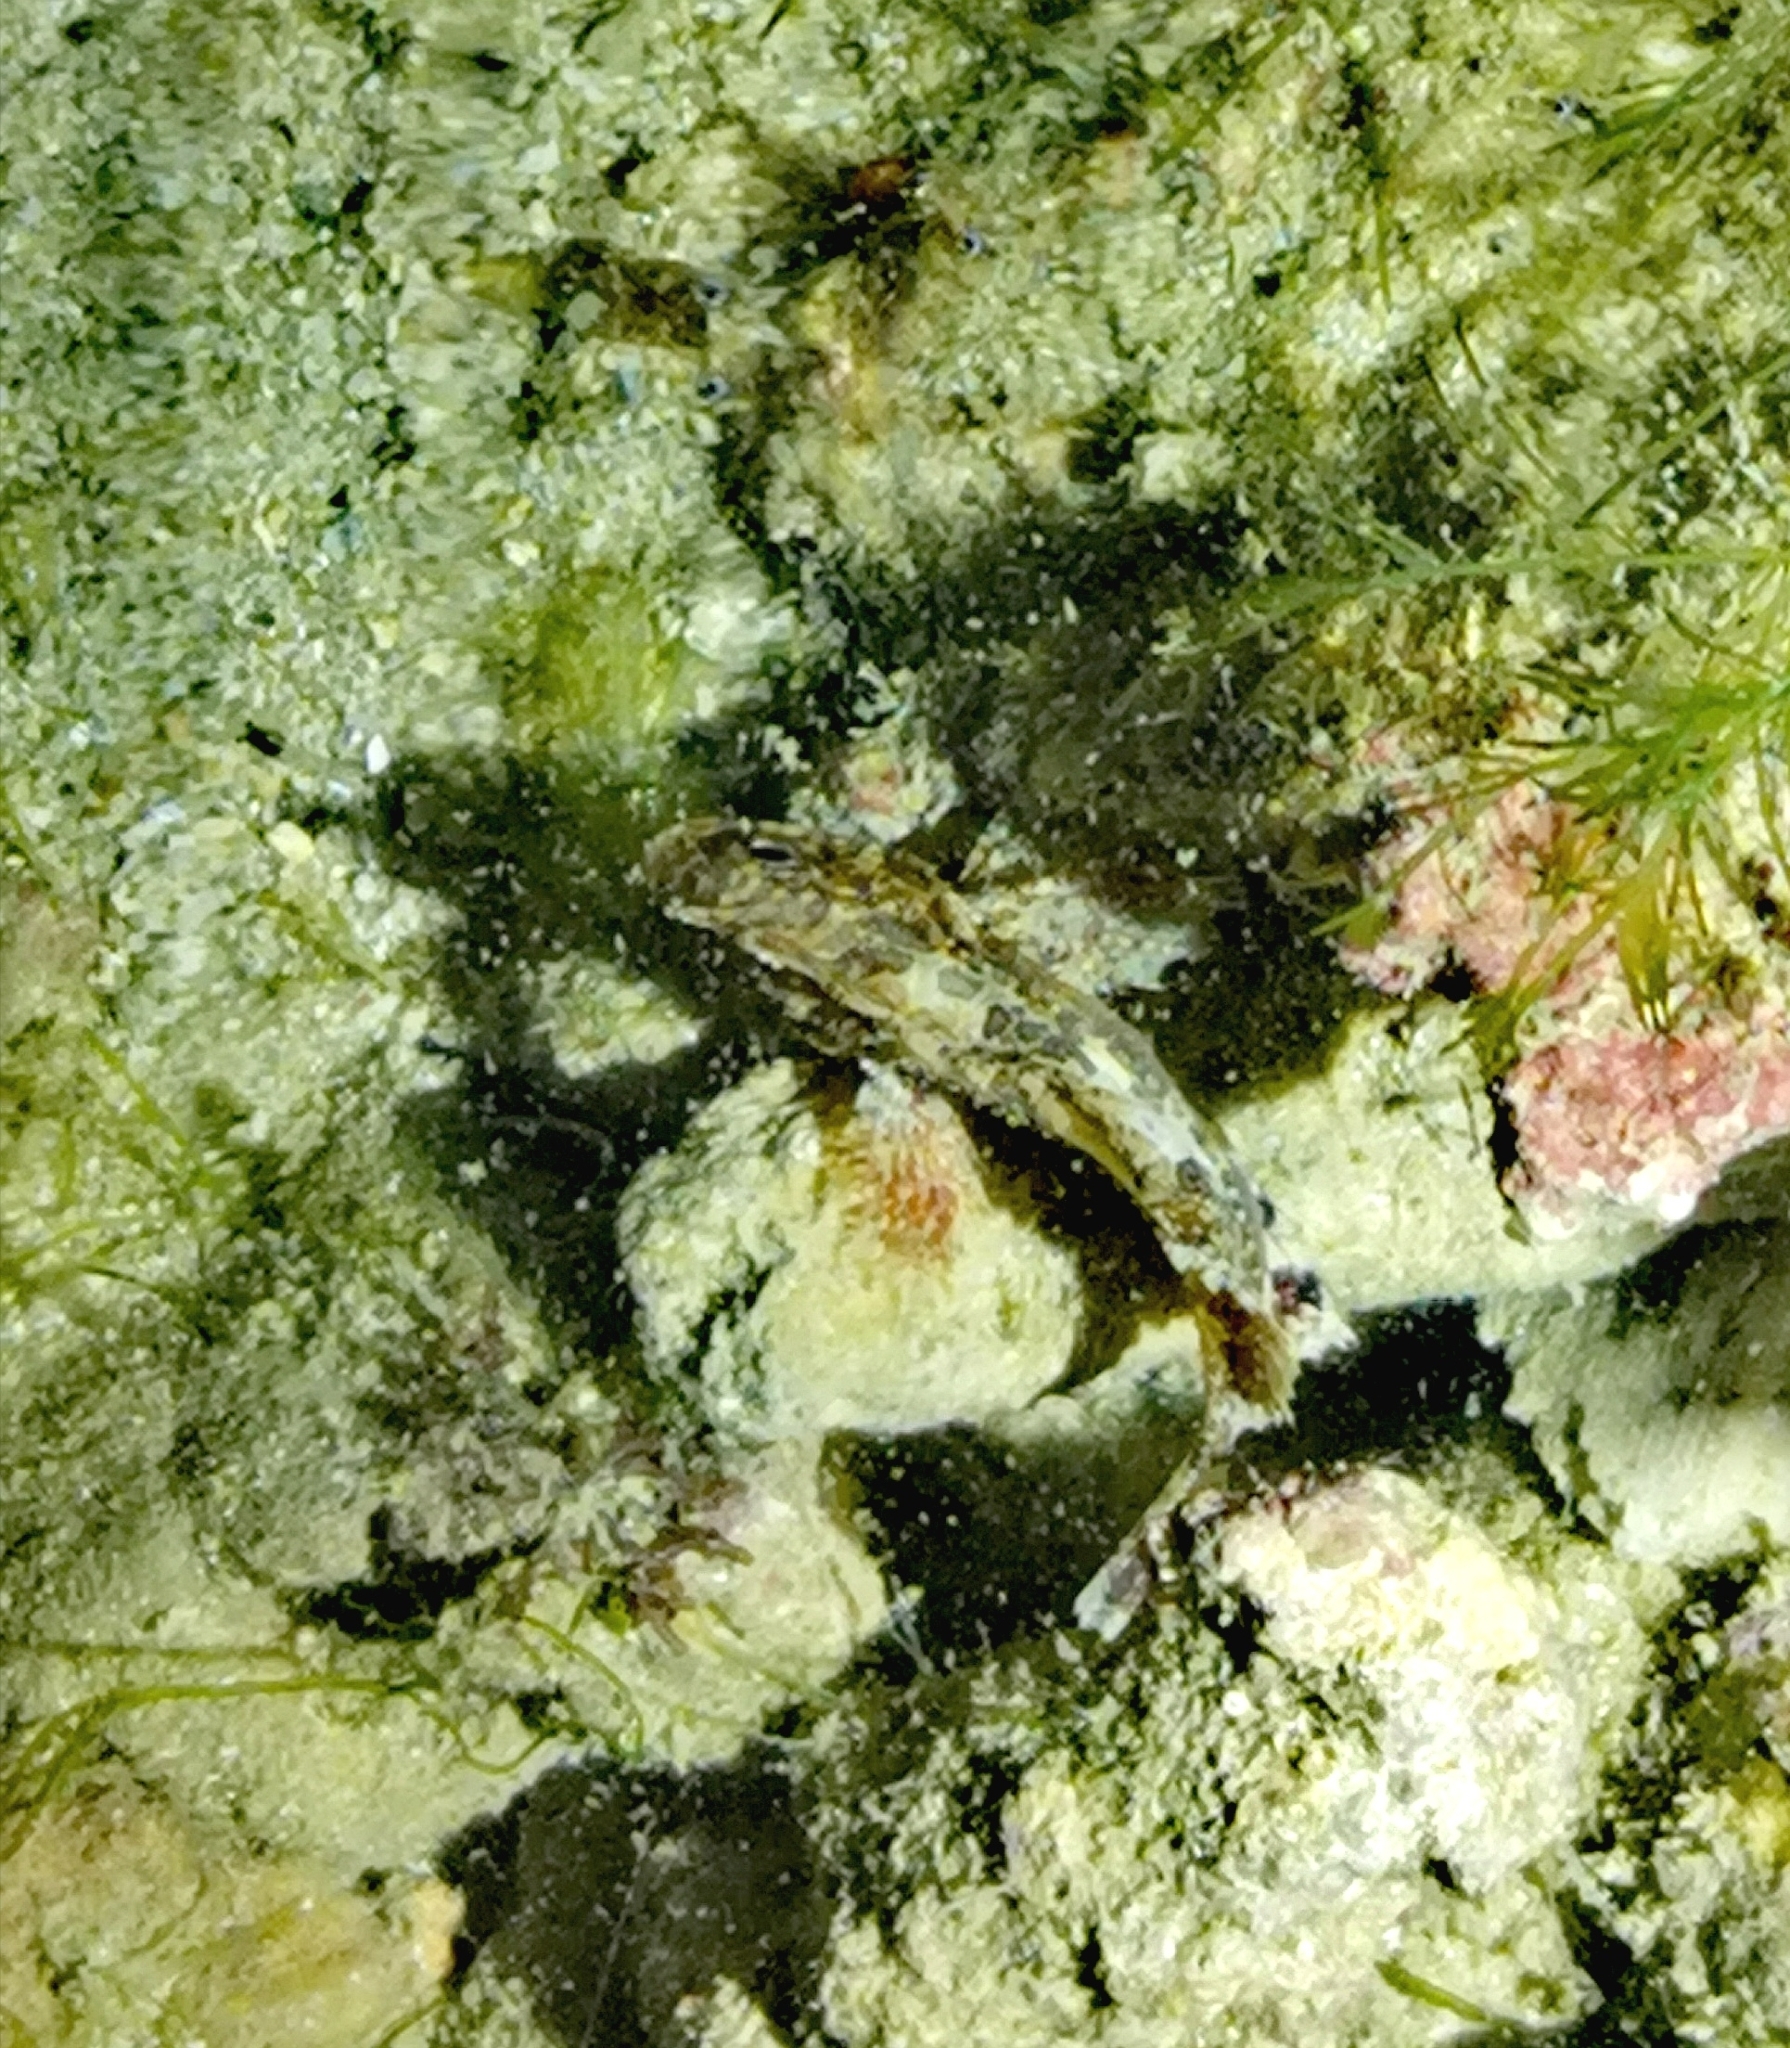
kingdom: Animalia
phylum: Chordata
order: Scorpaeniformes
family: Tetrarogidae
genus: Paracentropogon
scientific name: Paracentropogon longispinis
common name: Whiteface waspfish
